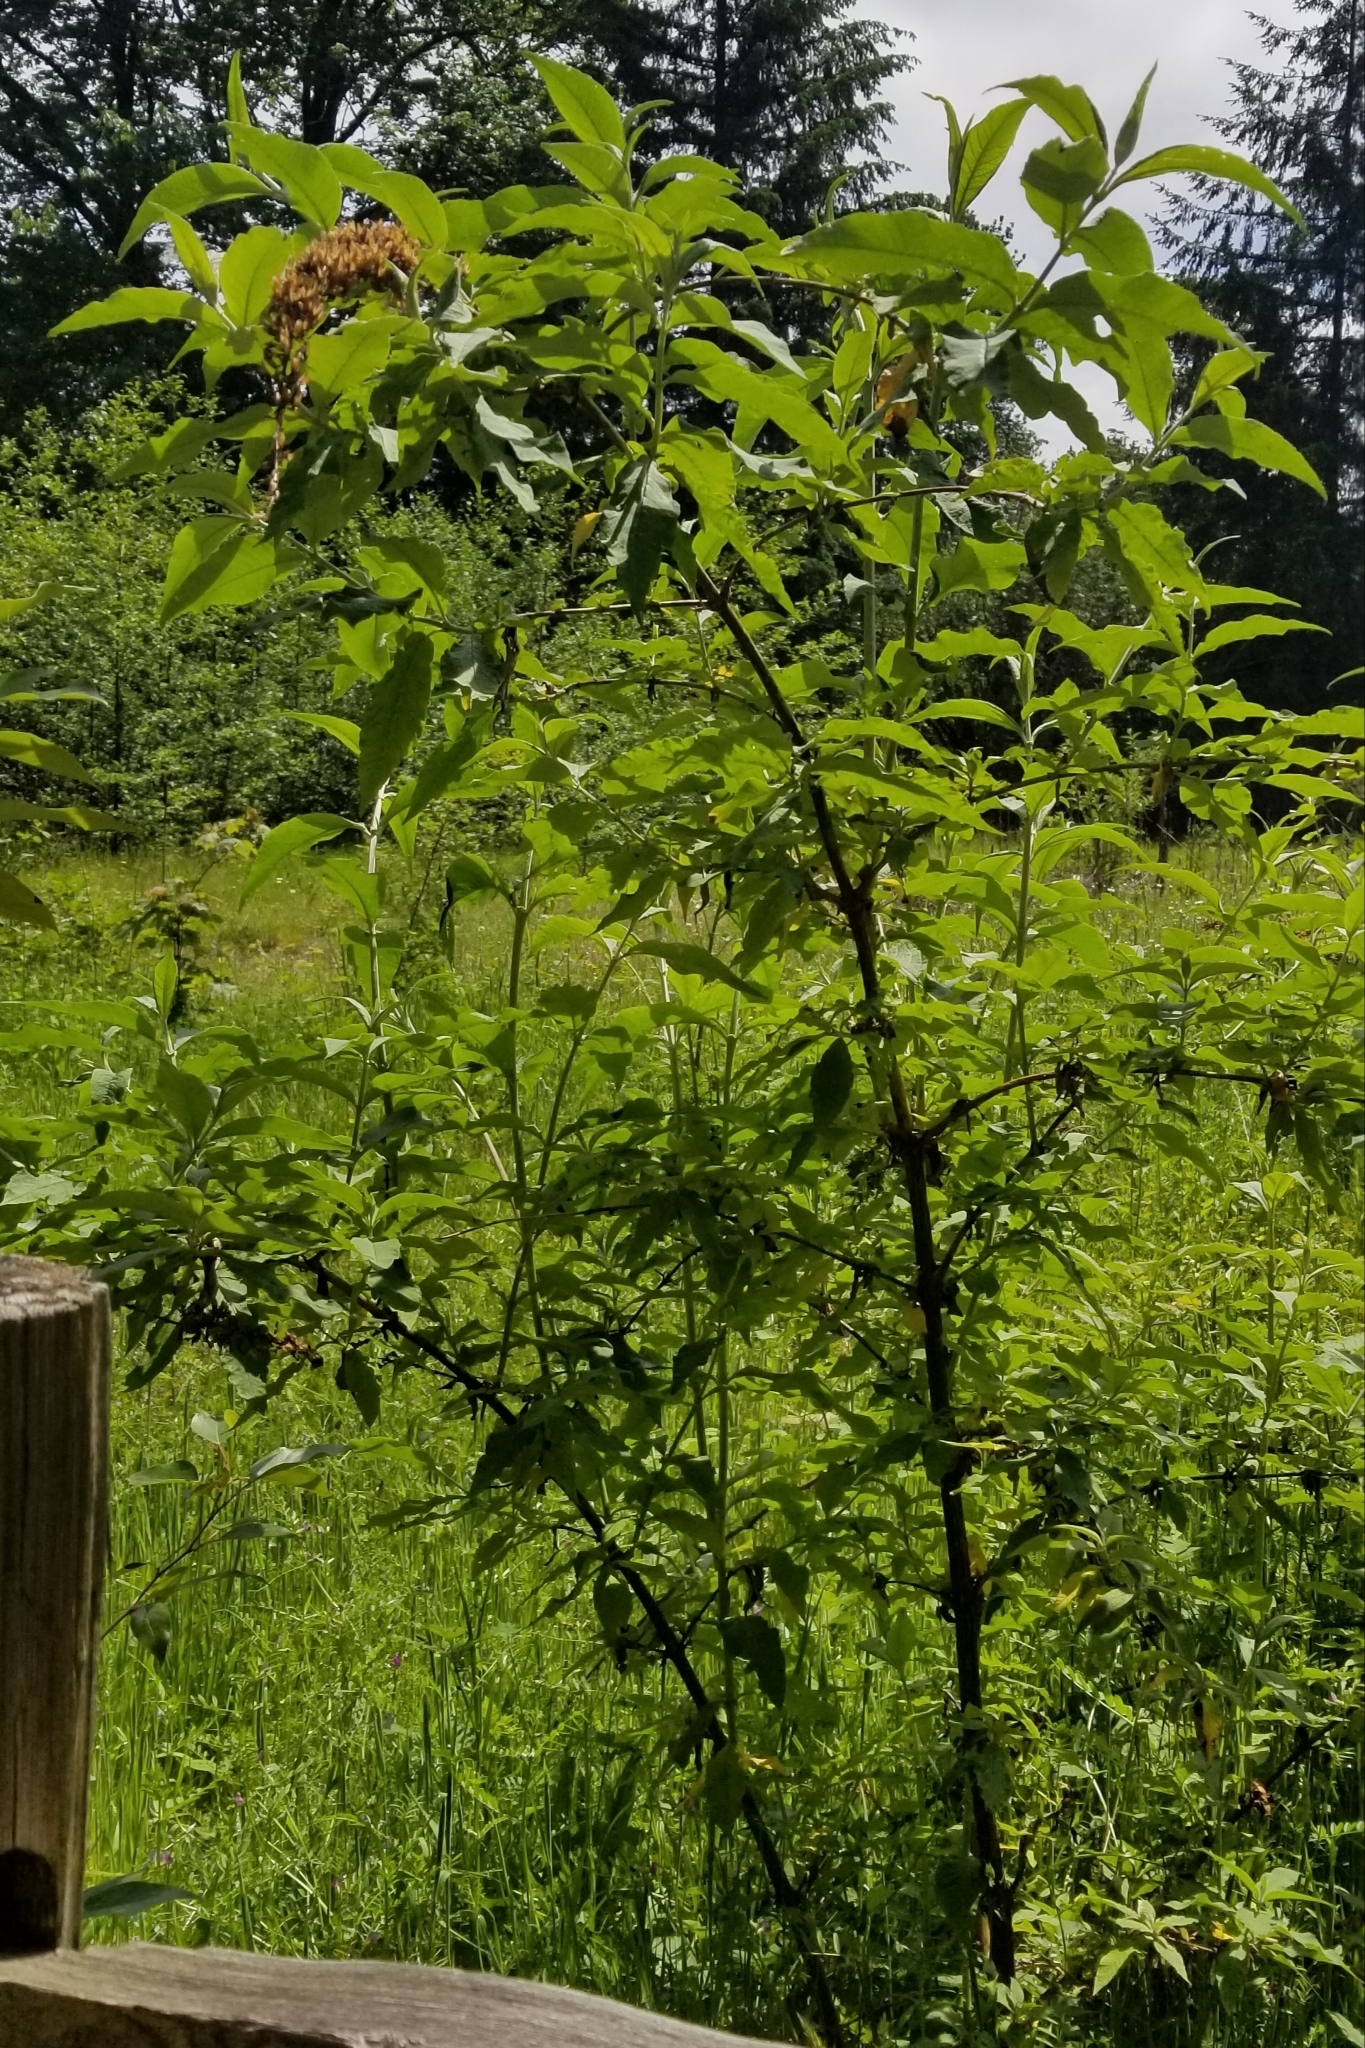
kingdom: Plantae
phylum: Tracheophyta
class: Magnoliopsida
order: Lamiales
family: Scrophulariaceae
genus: Buddleja
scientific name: Buddleja davidii
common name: Butterfly-bush
